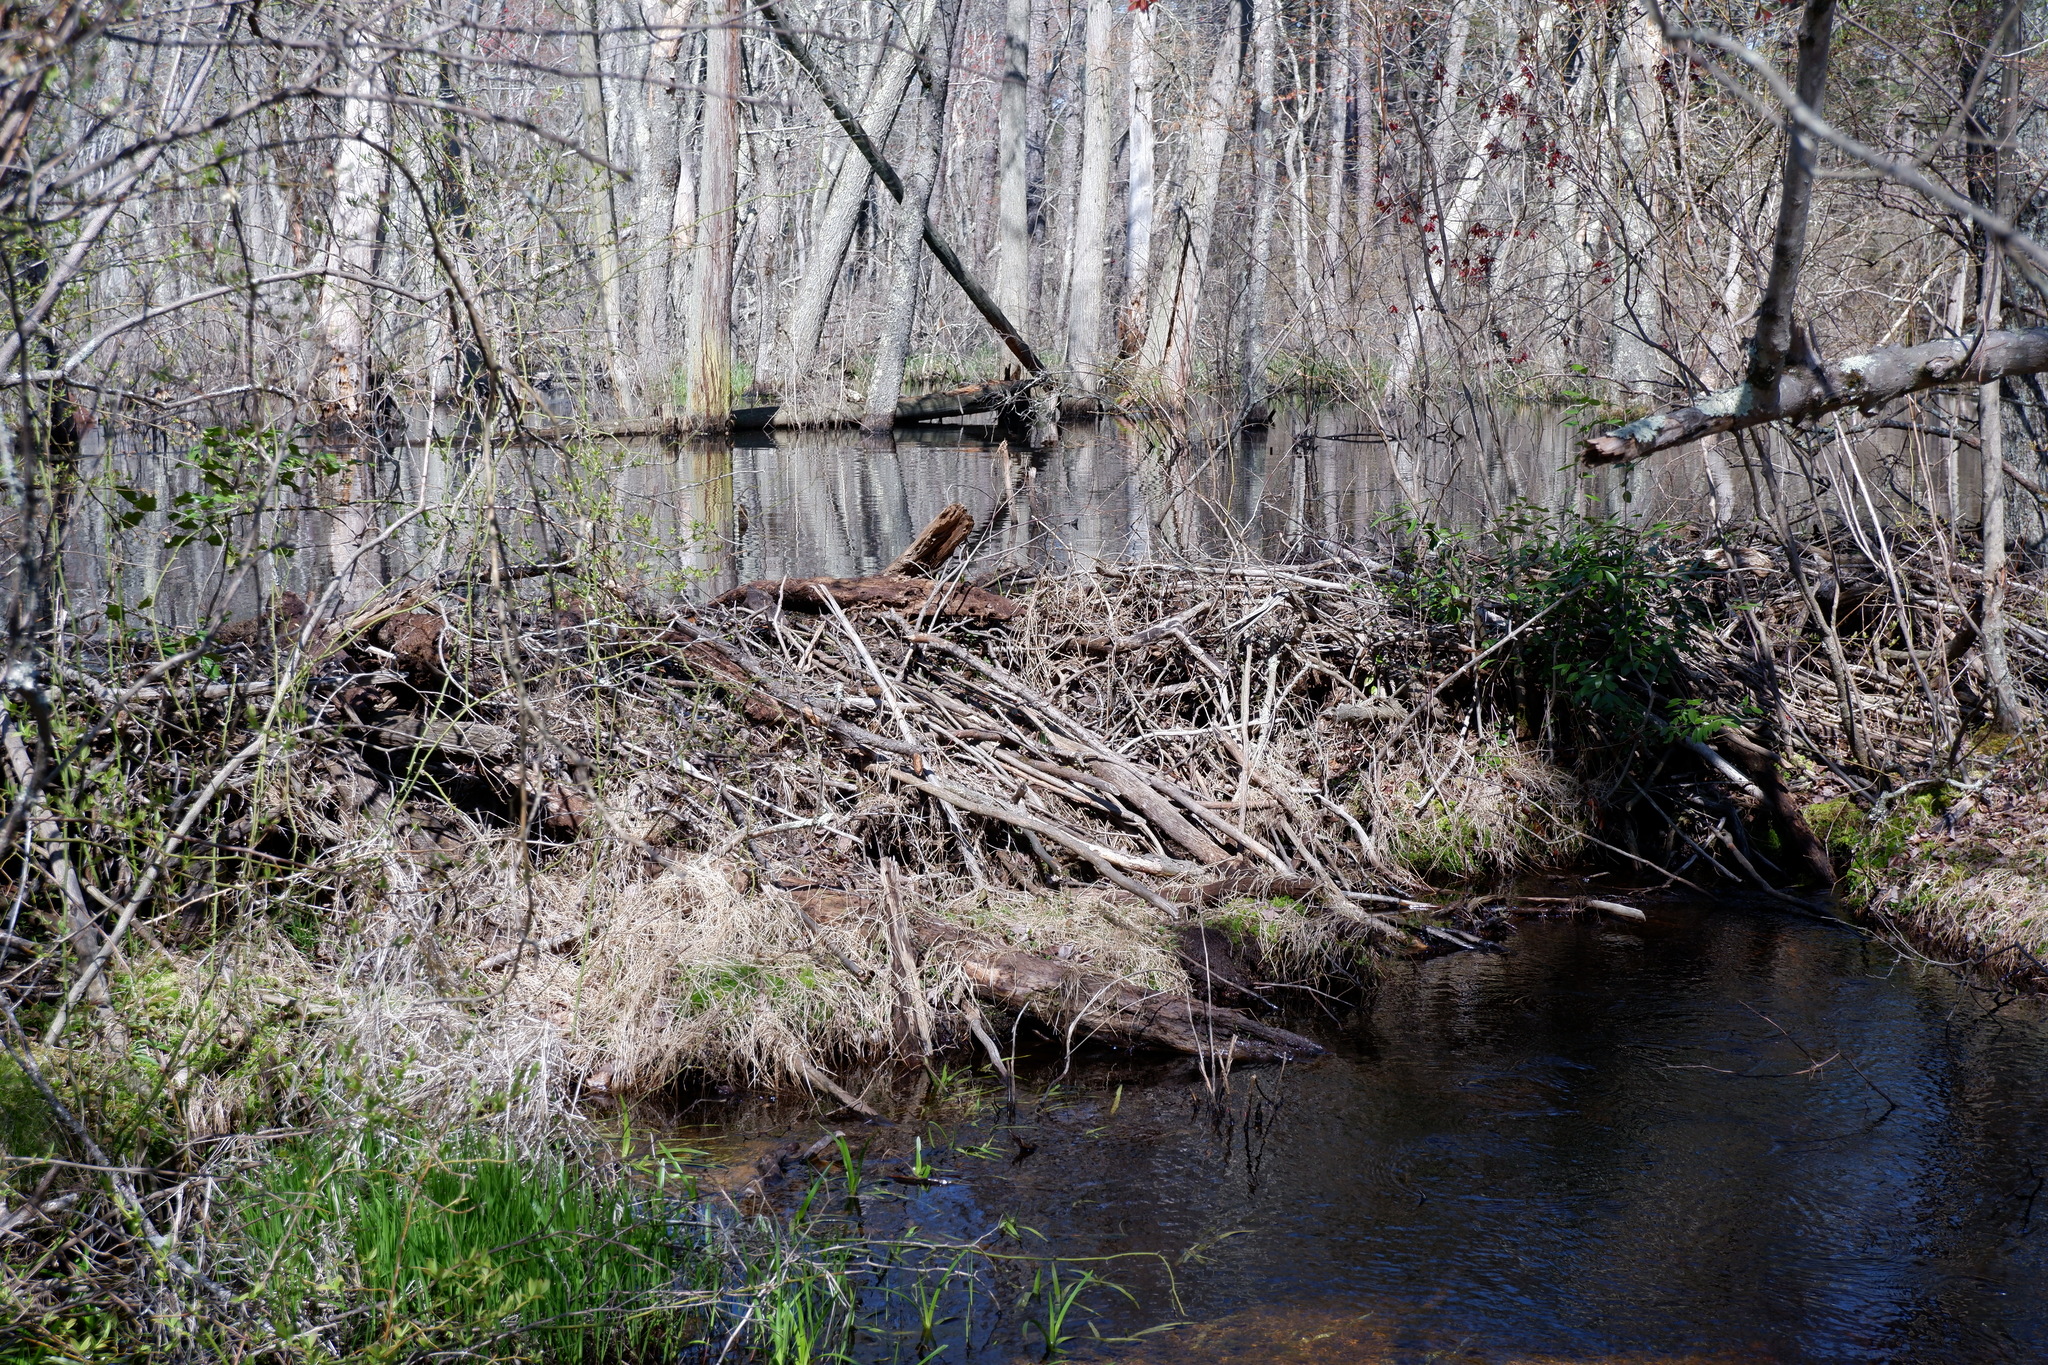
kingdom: Animalia
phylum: Chordata
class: Mammalia
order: Rodentia
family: Castoridae
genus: Castor
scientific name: Castor canadensis
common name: American beaver
